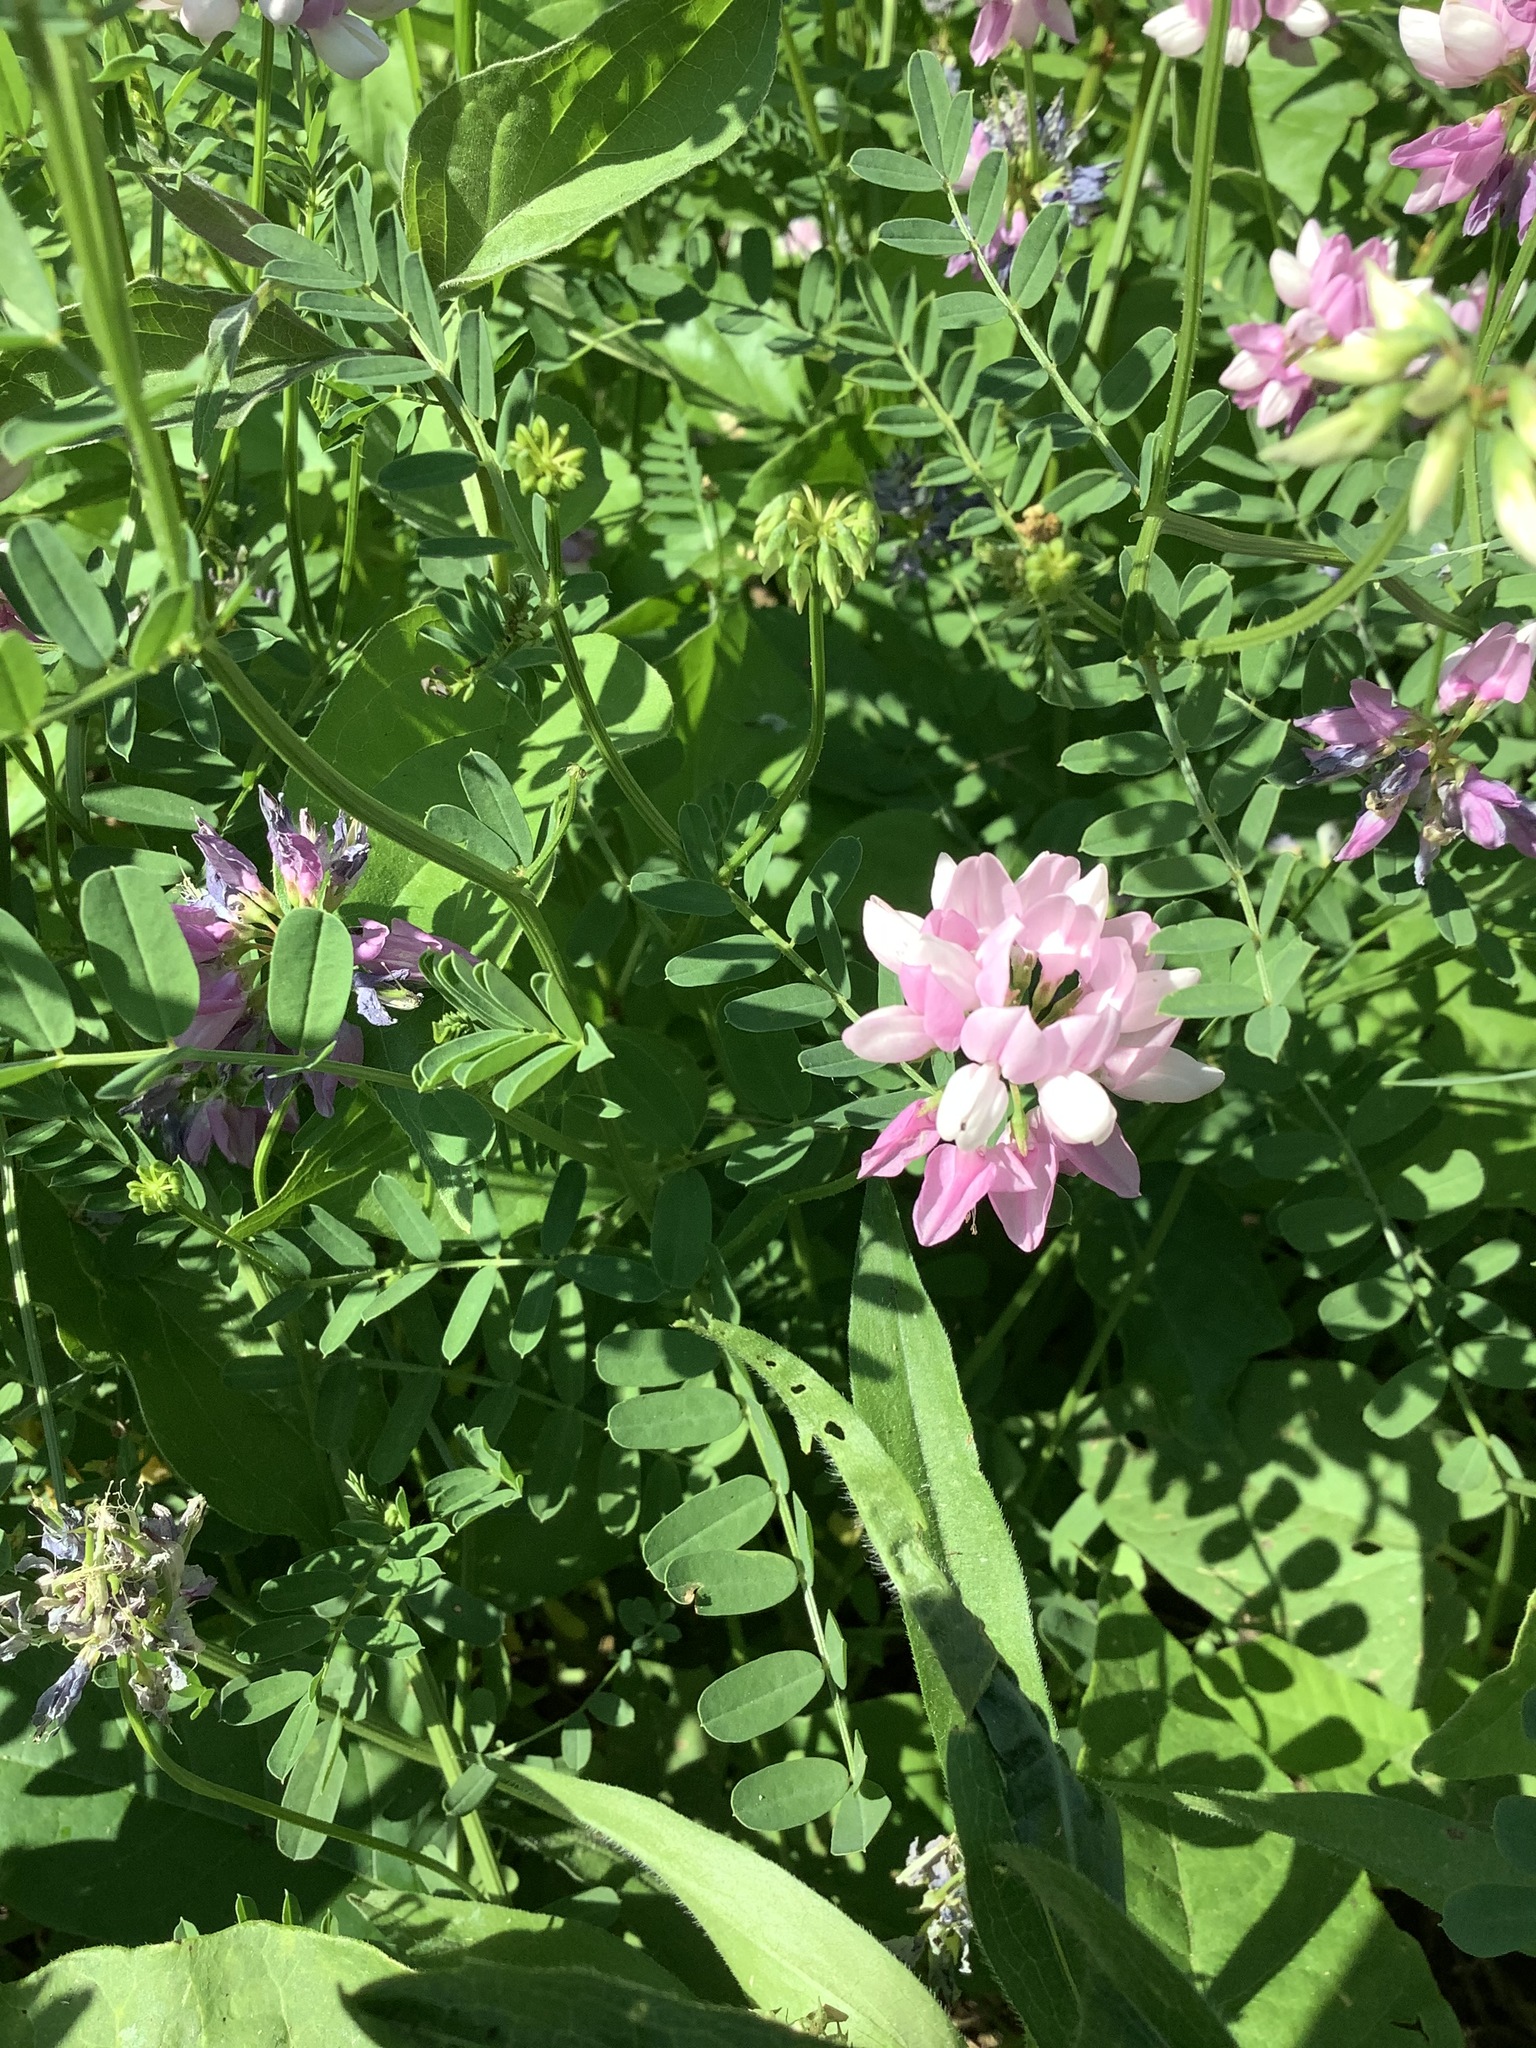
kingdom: Plantae
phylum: Tracheophyta
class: Magnoliopsida
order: Fabales
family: Fabaceae
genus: Coronilla
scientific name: Coronilla varia
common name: Crownvetch
